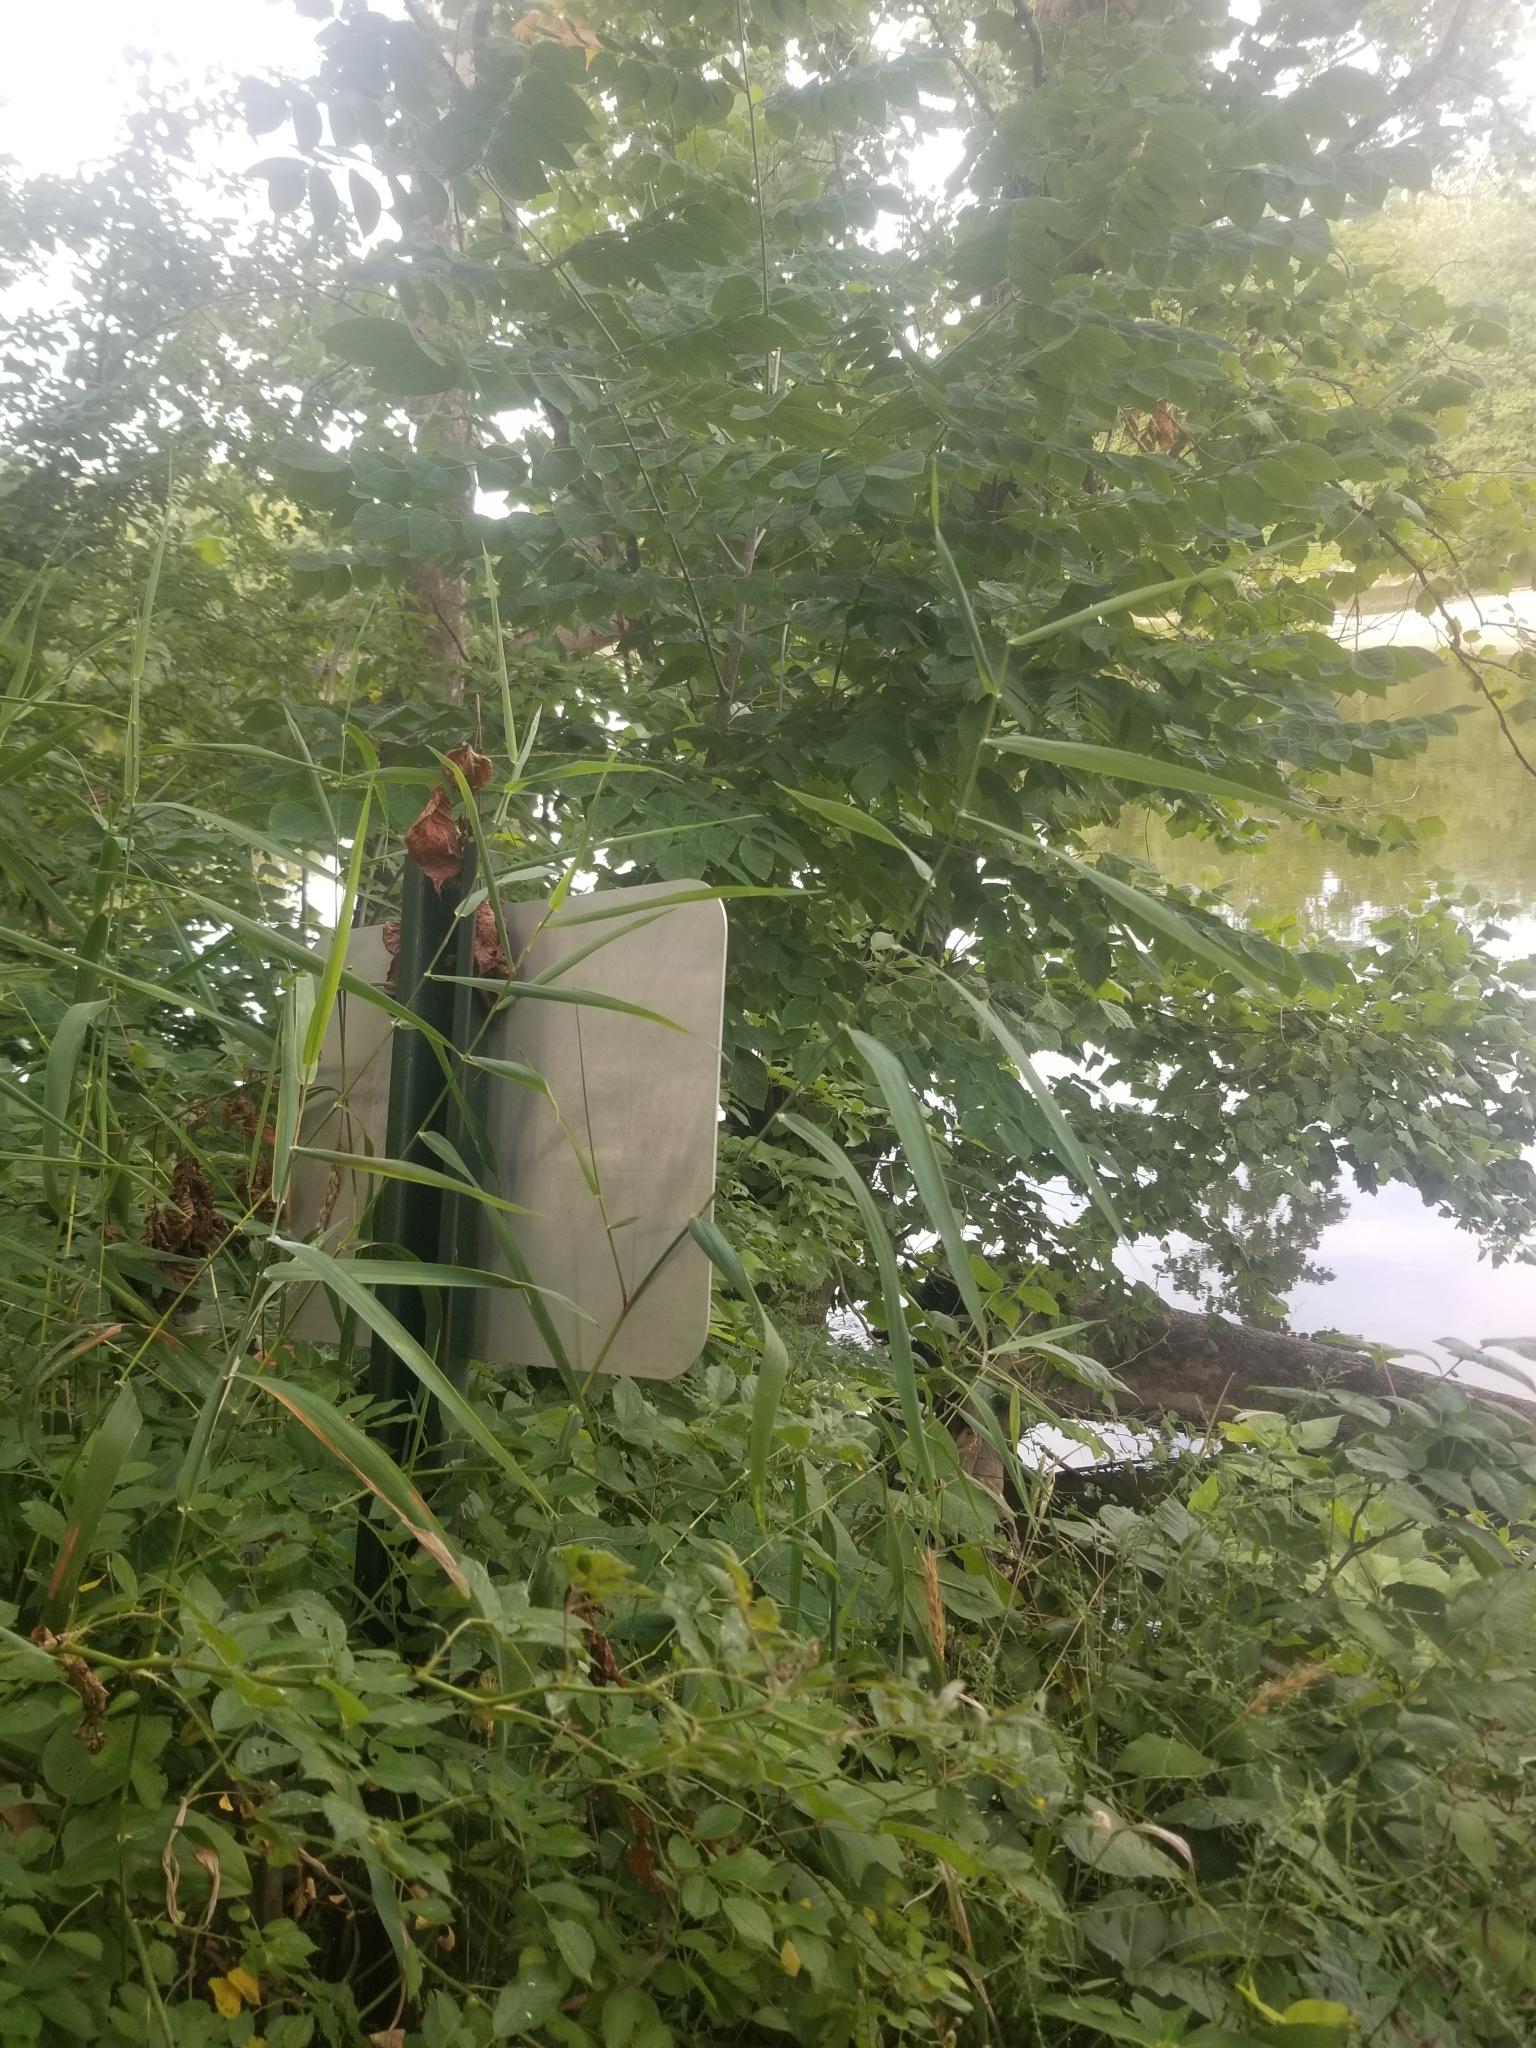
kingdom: Plantae
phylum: Tracheophyta
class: Liliopsida
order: Poales
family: Poaceae
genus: Phragmites
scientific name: Phragmites australis
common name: Common reed
